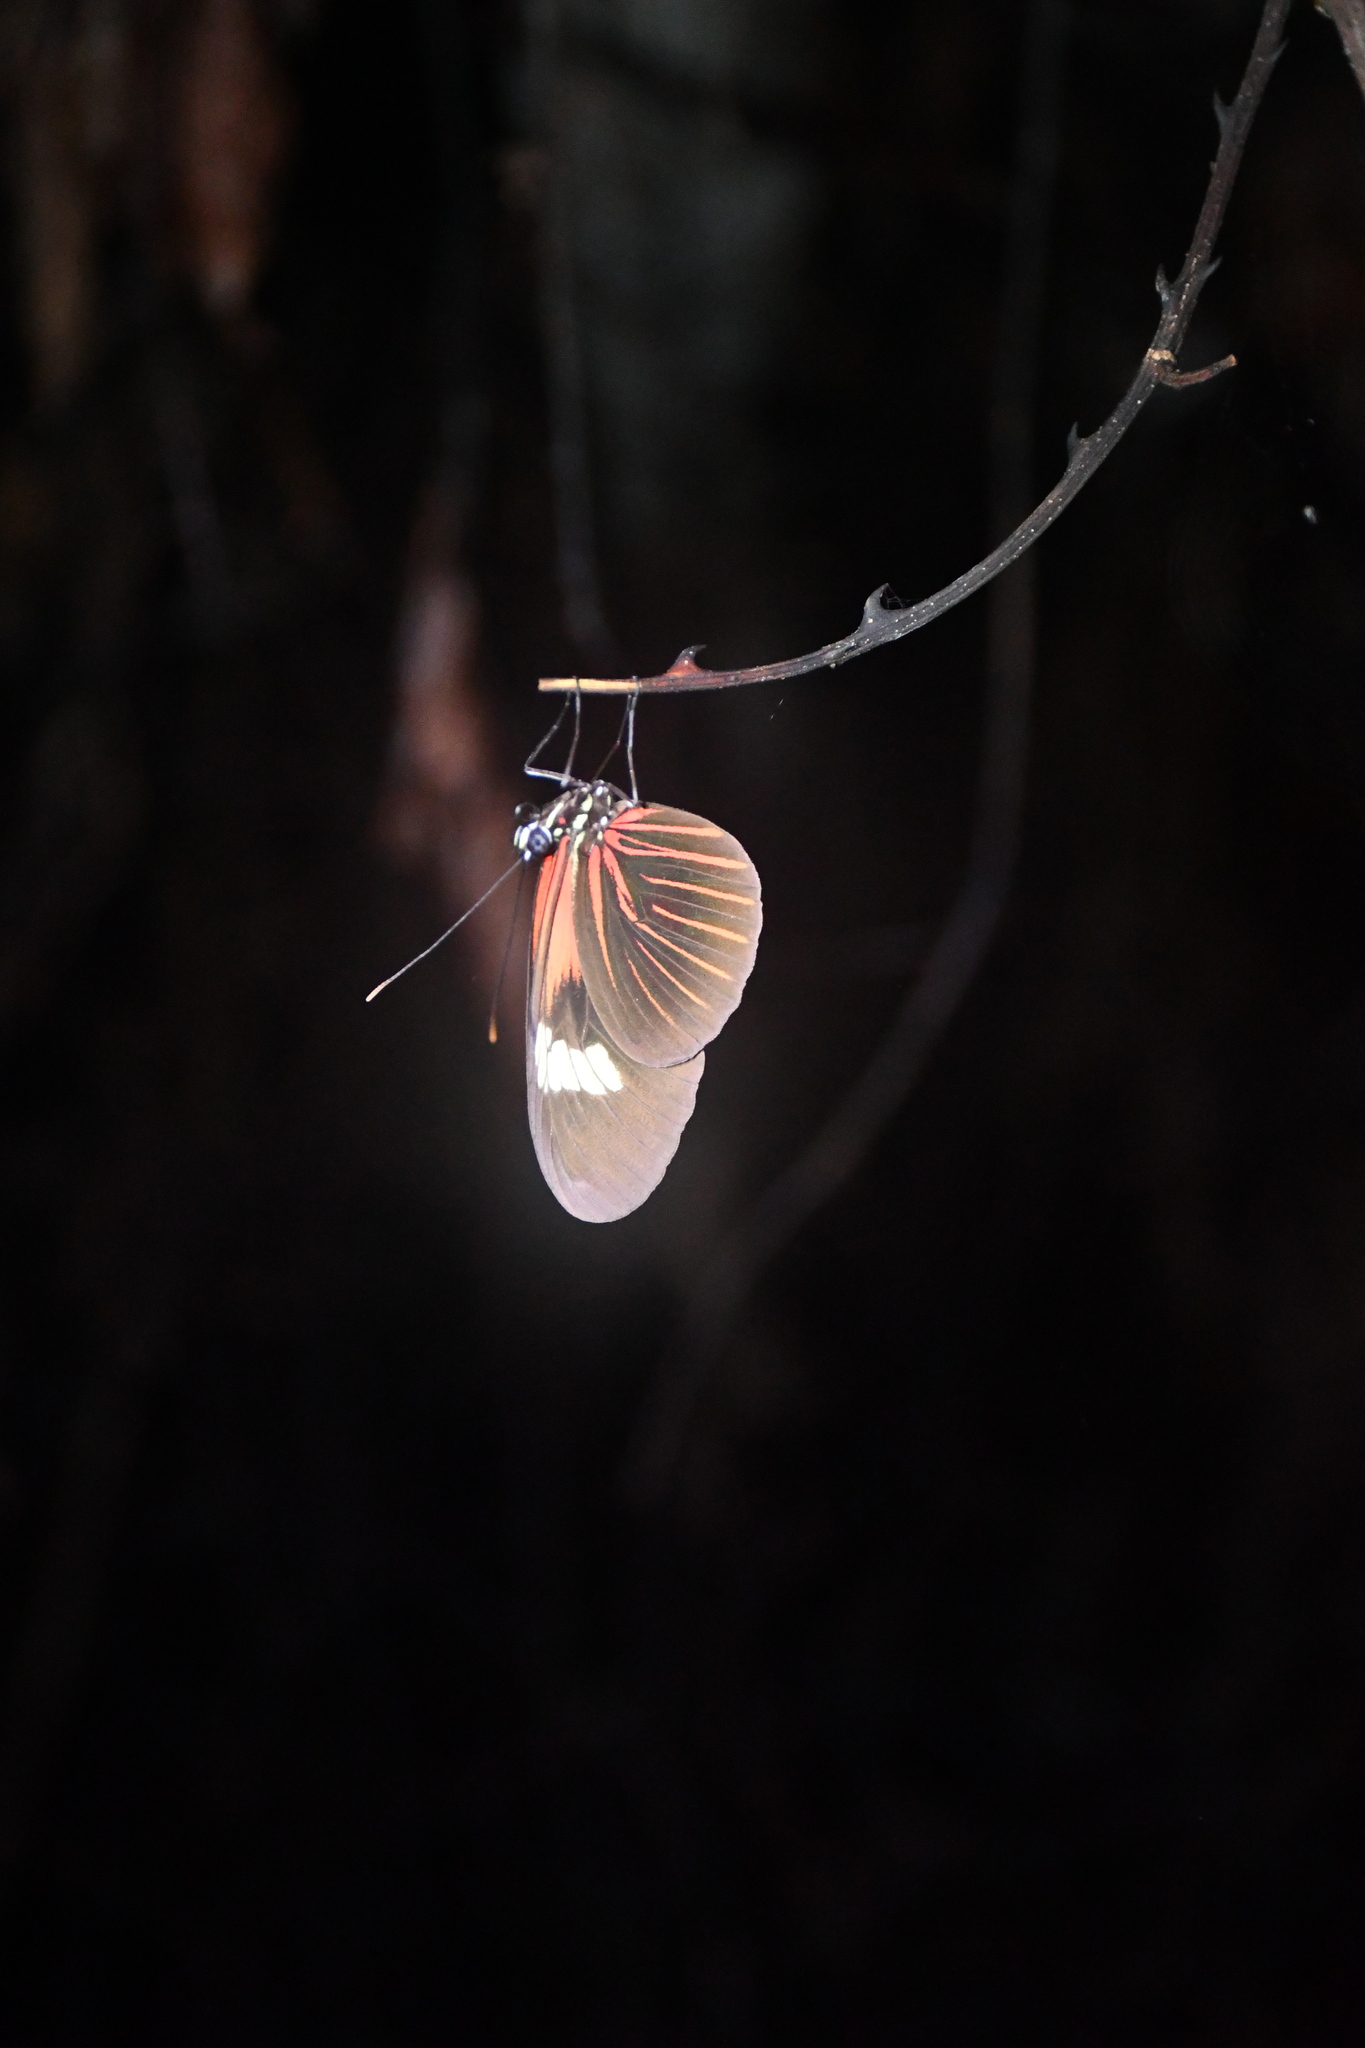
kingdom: Animalia
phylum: Arthropoda
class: Insecta
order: Lepidoptera
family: Nymphalidae
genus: Heliconius
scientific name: Heliconius erato
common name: Common patch longwing
